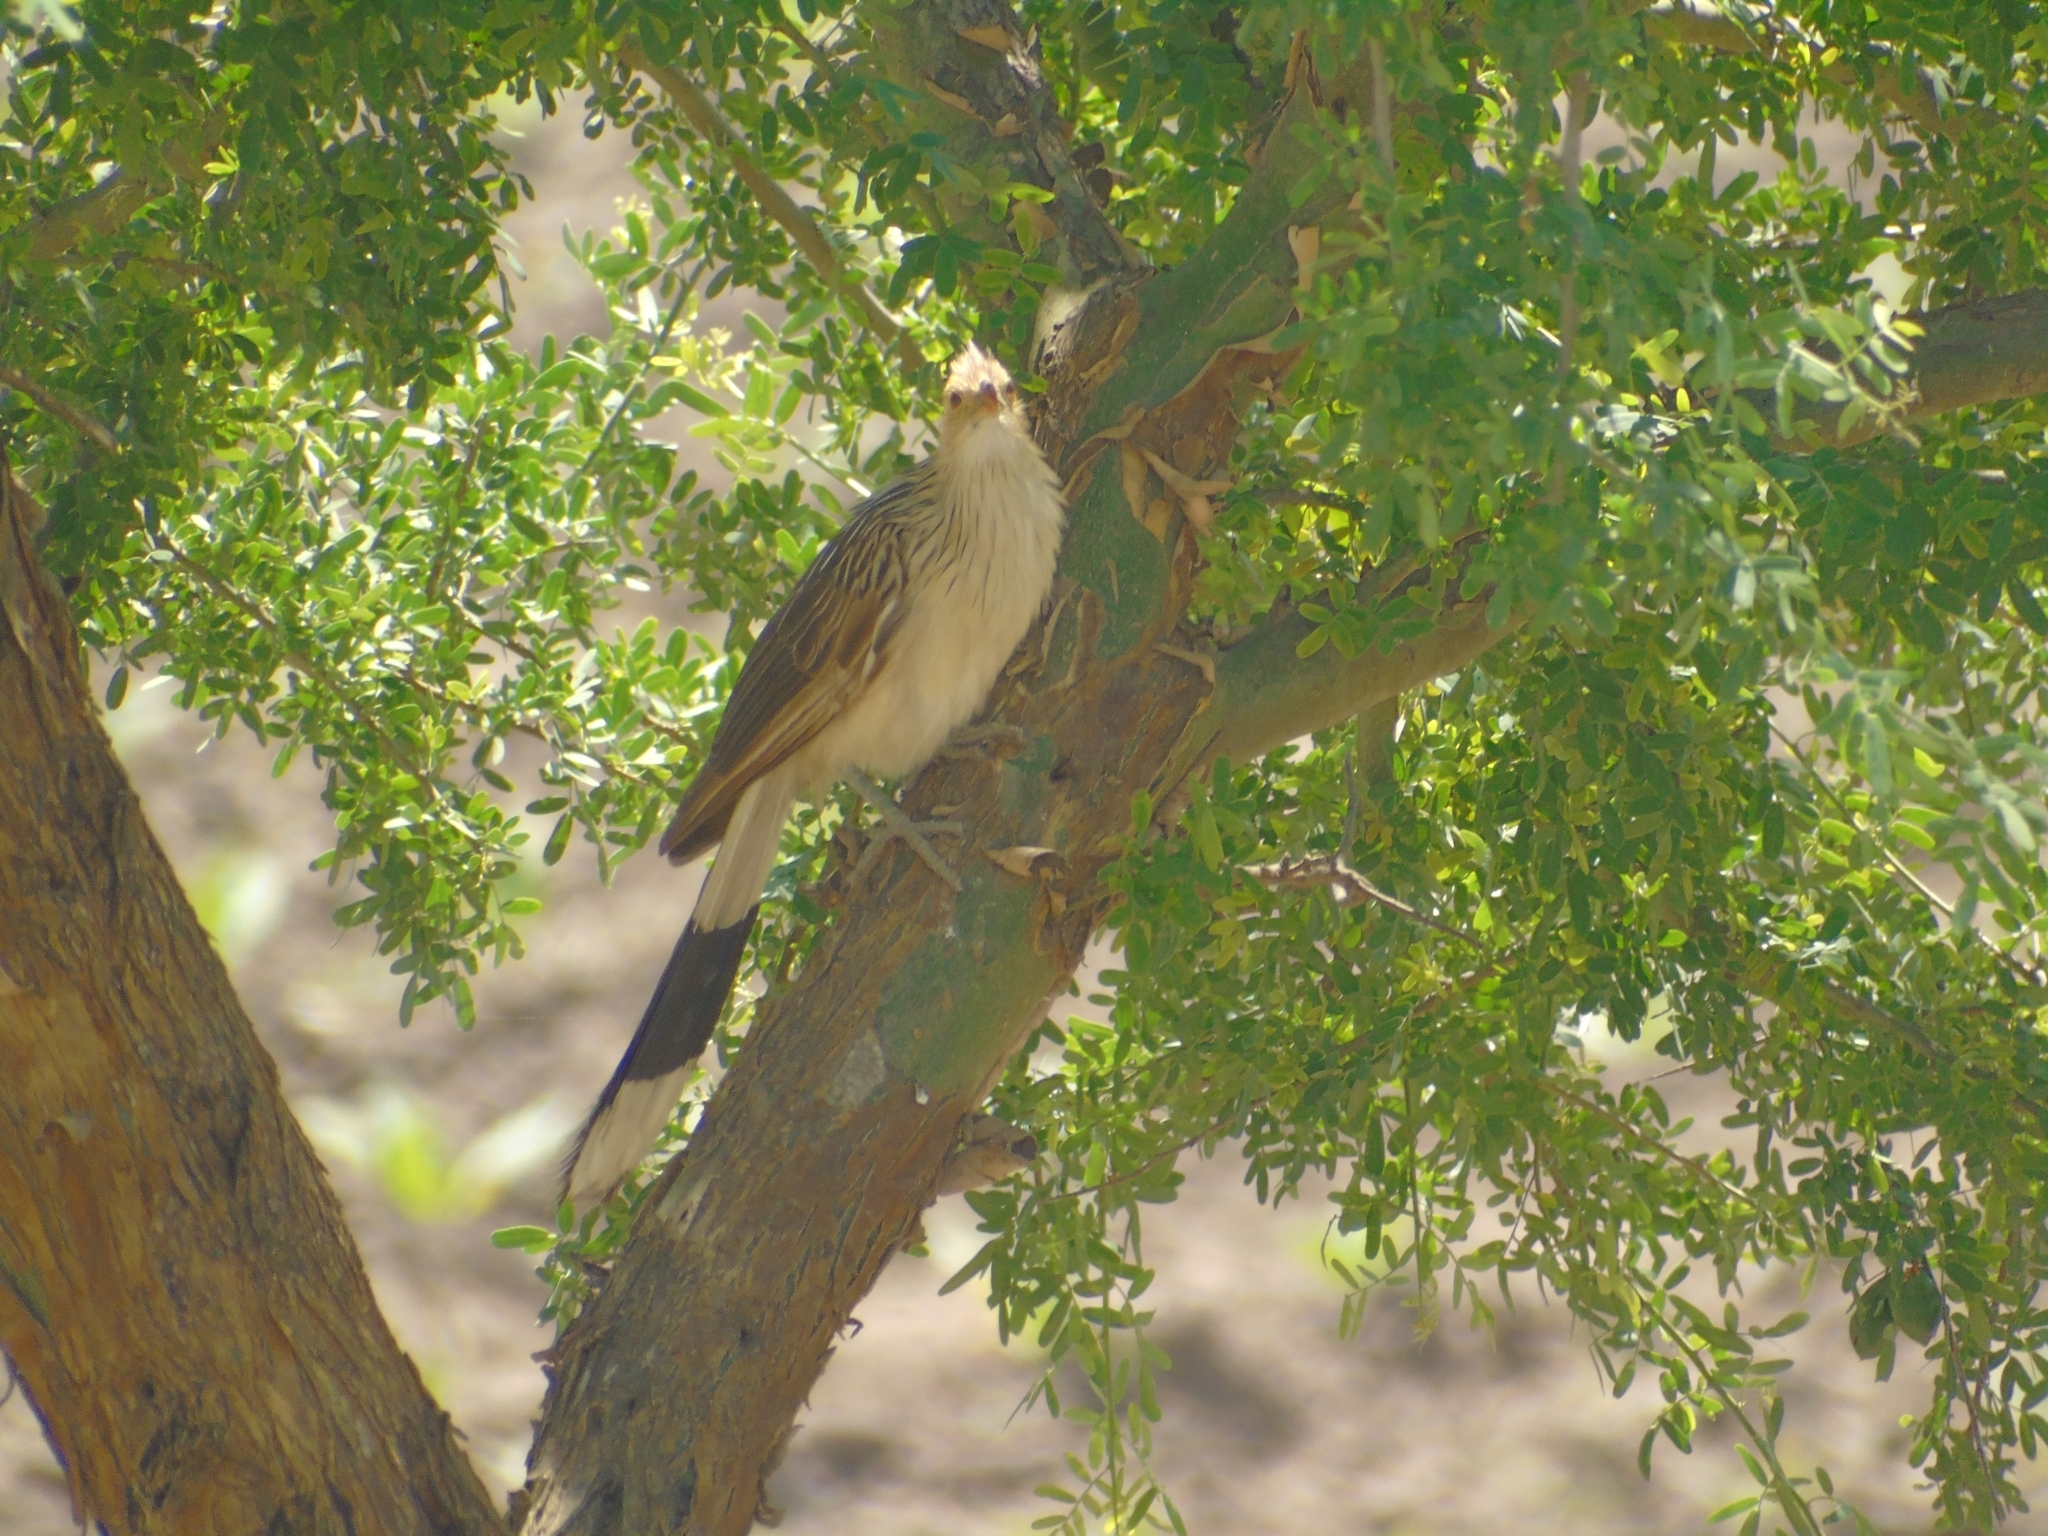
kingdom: Animalia
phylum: Chordata
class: Aves
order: Cuculiformes
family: Cuculidae
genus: Guira
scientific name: Guira guira
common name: Guira cuckoo
